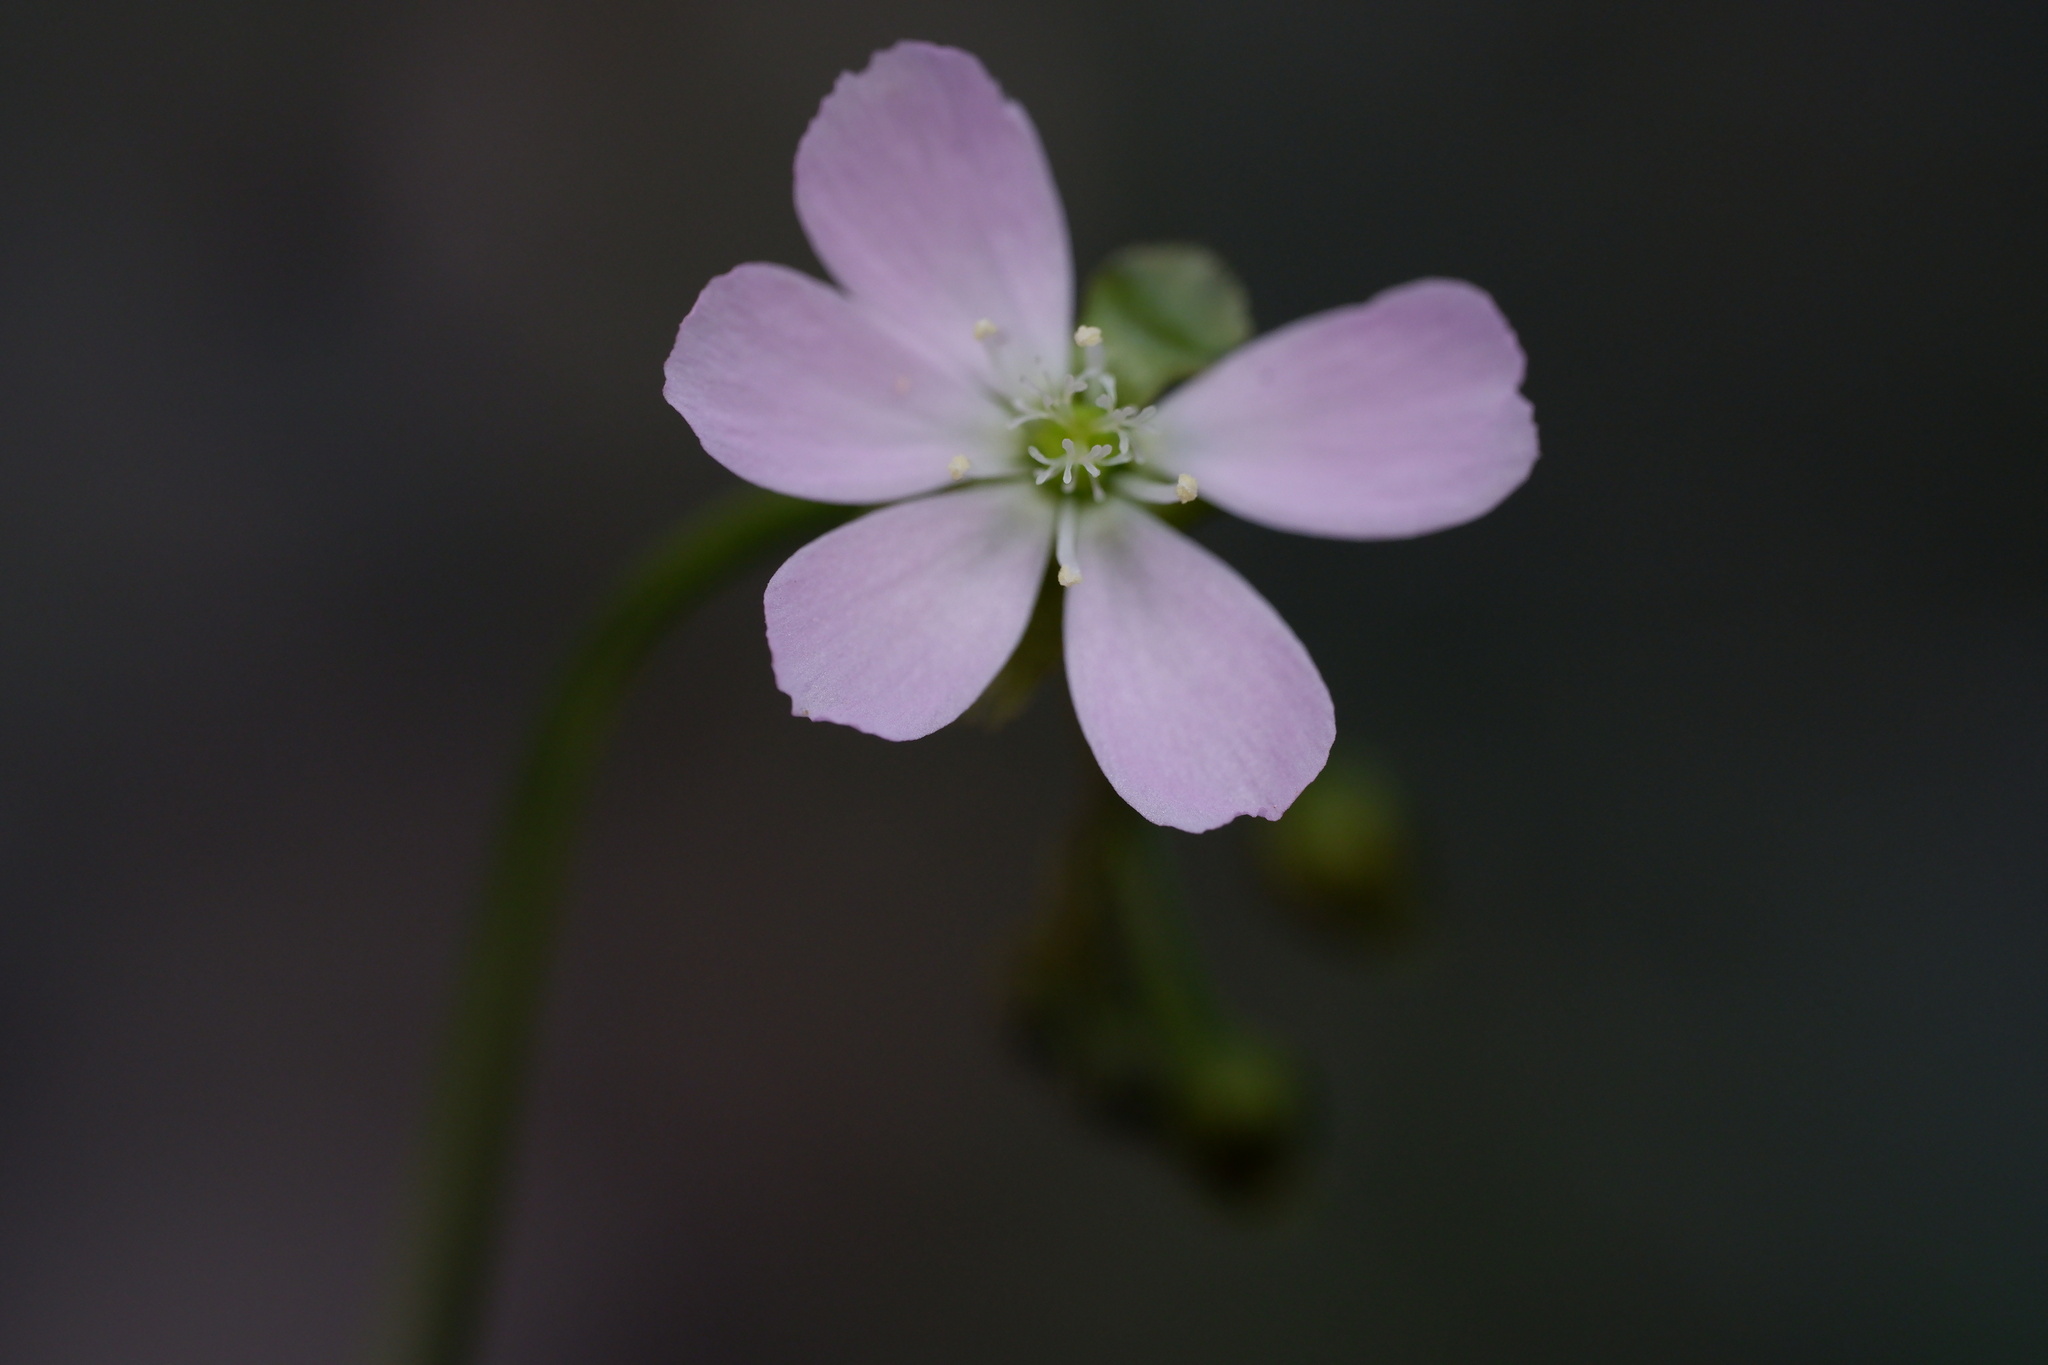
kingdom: Plantae
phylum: Tracheophyta
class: Magnoliopsida
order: Caryophyllales
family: Droseraceae
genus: Drosera
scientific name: Drosera peltata
